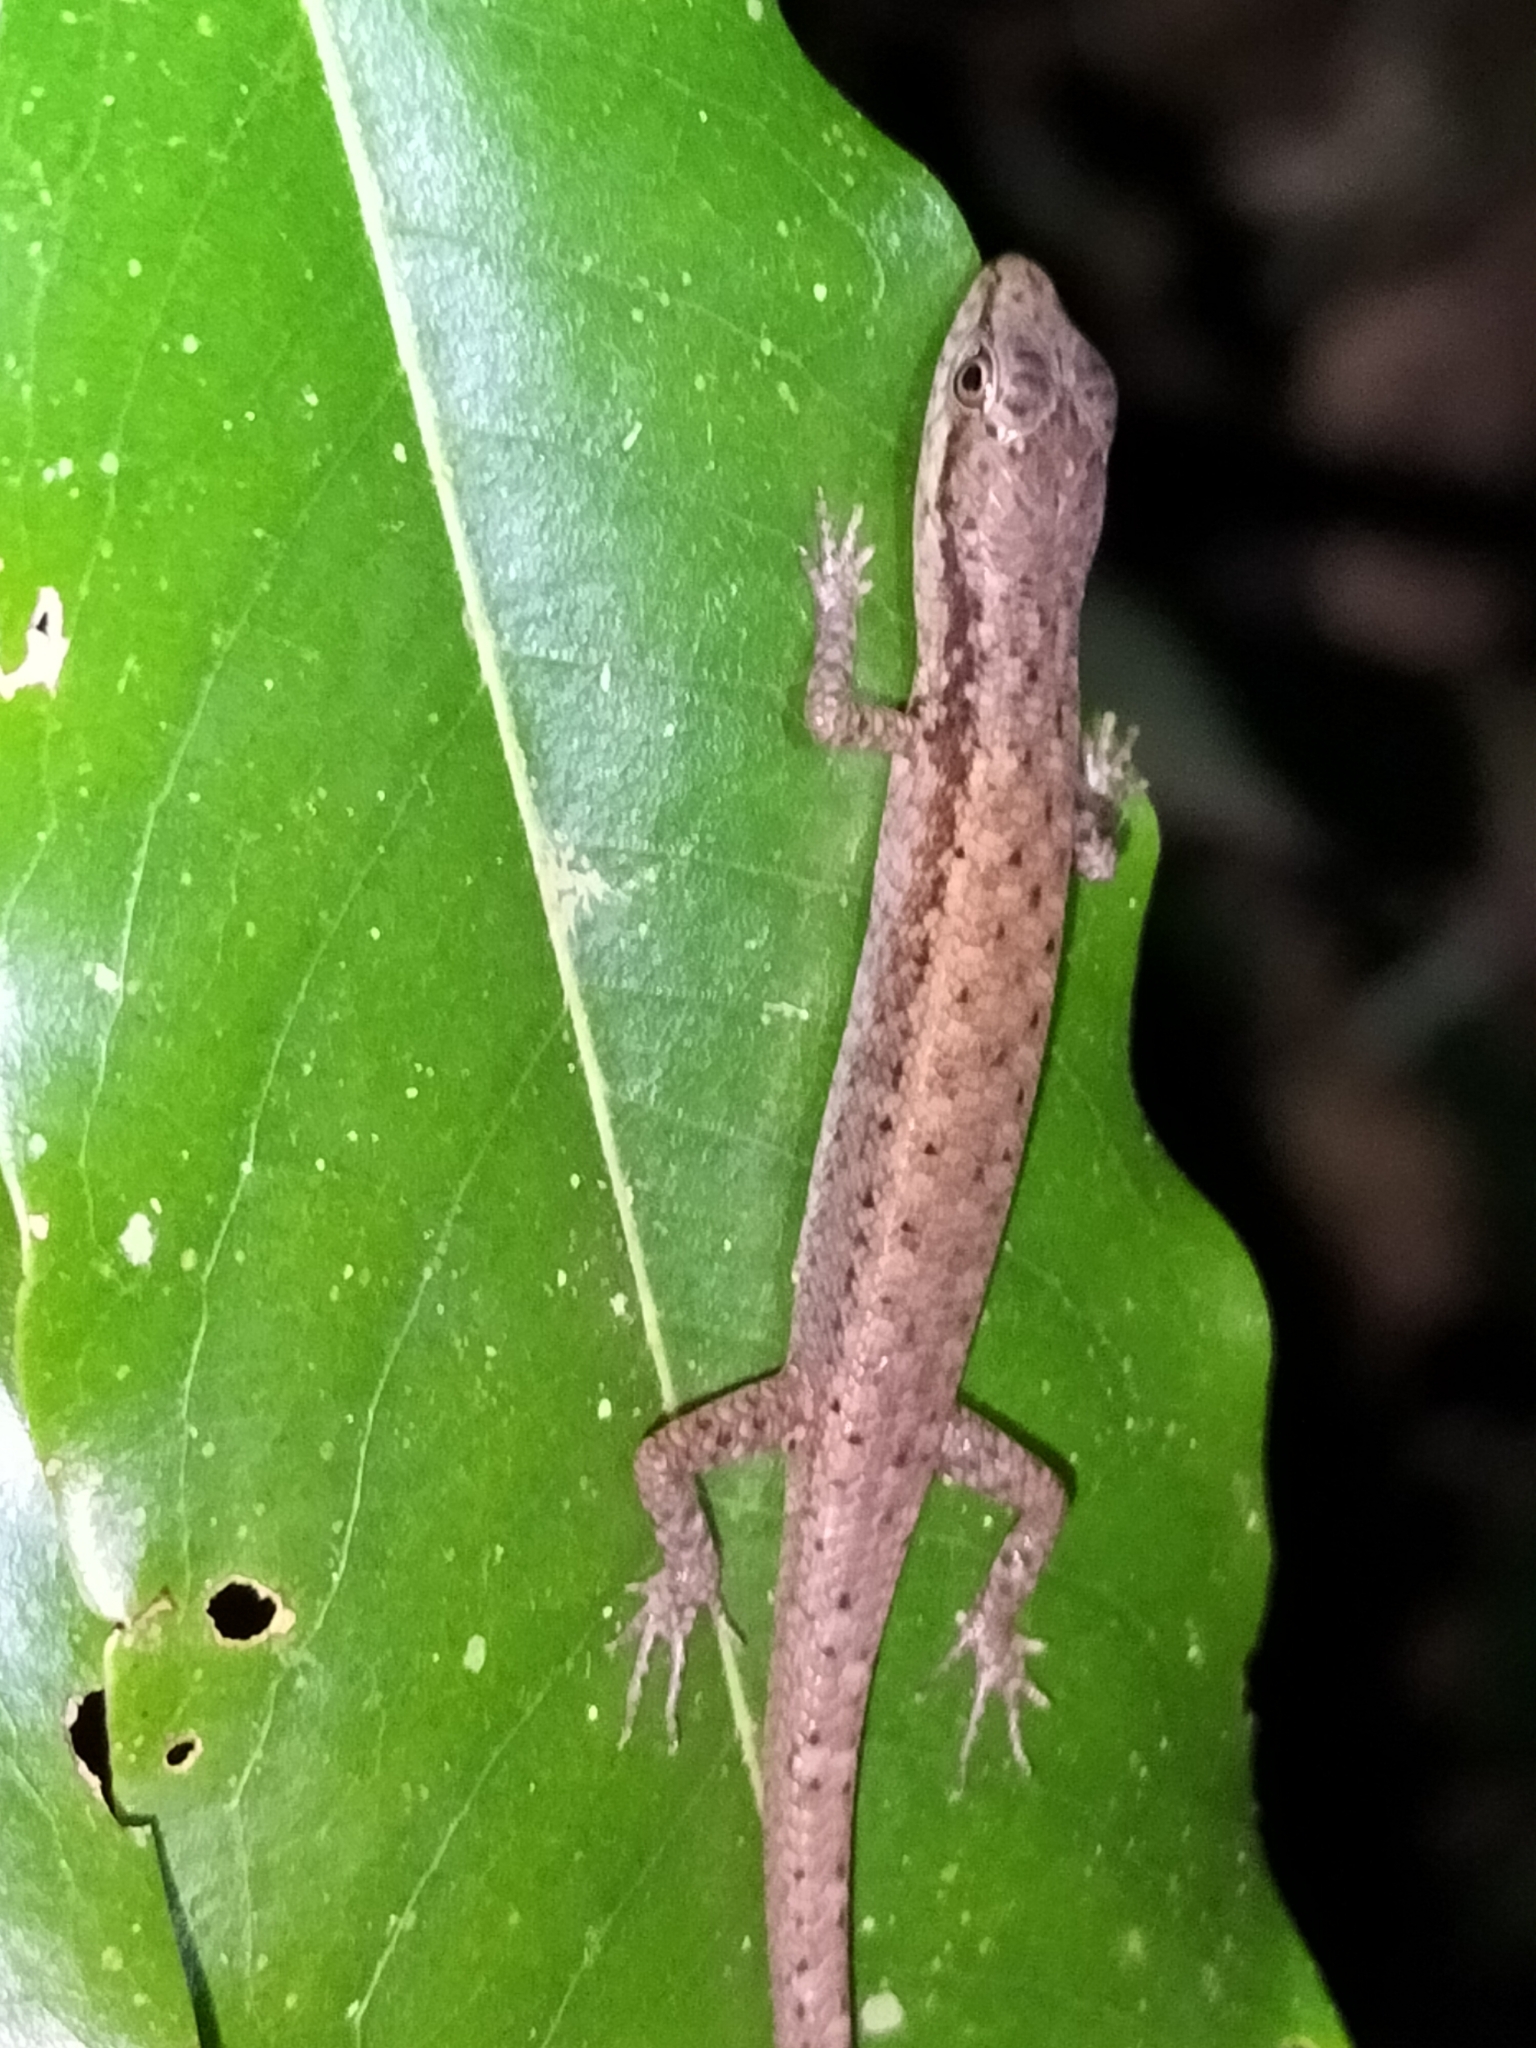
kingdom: Animalia
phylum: Chordata
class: Squamata
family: Scincidae
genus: Saproscincus
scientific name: Saproscincus basiliscus
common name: Pale-lipped shadeskink
